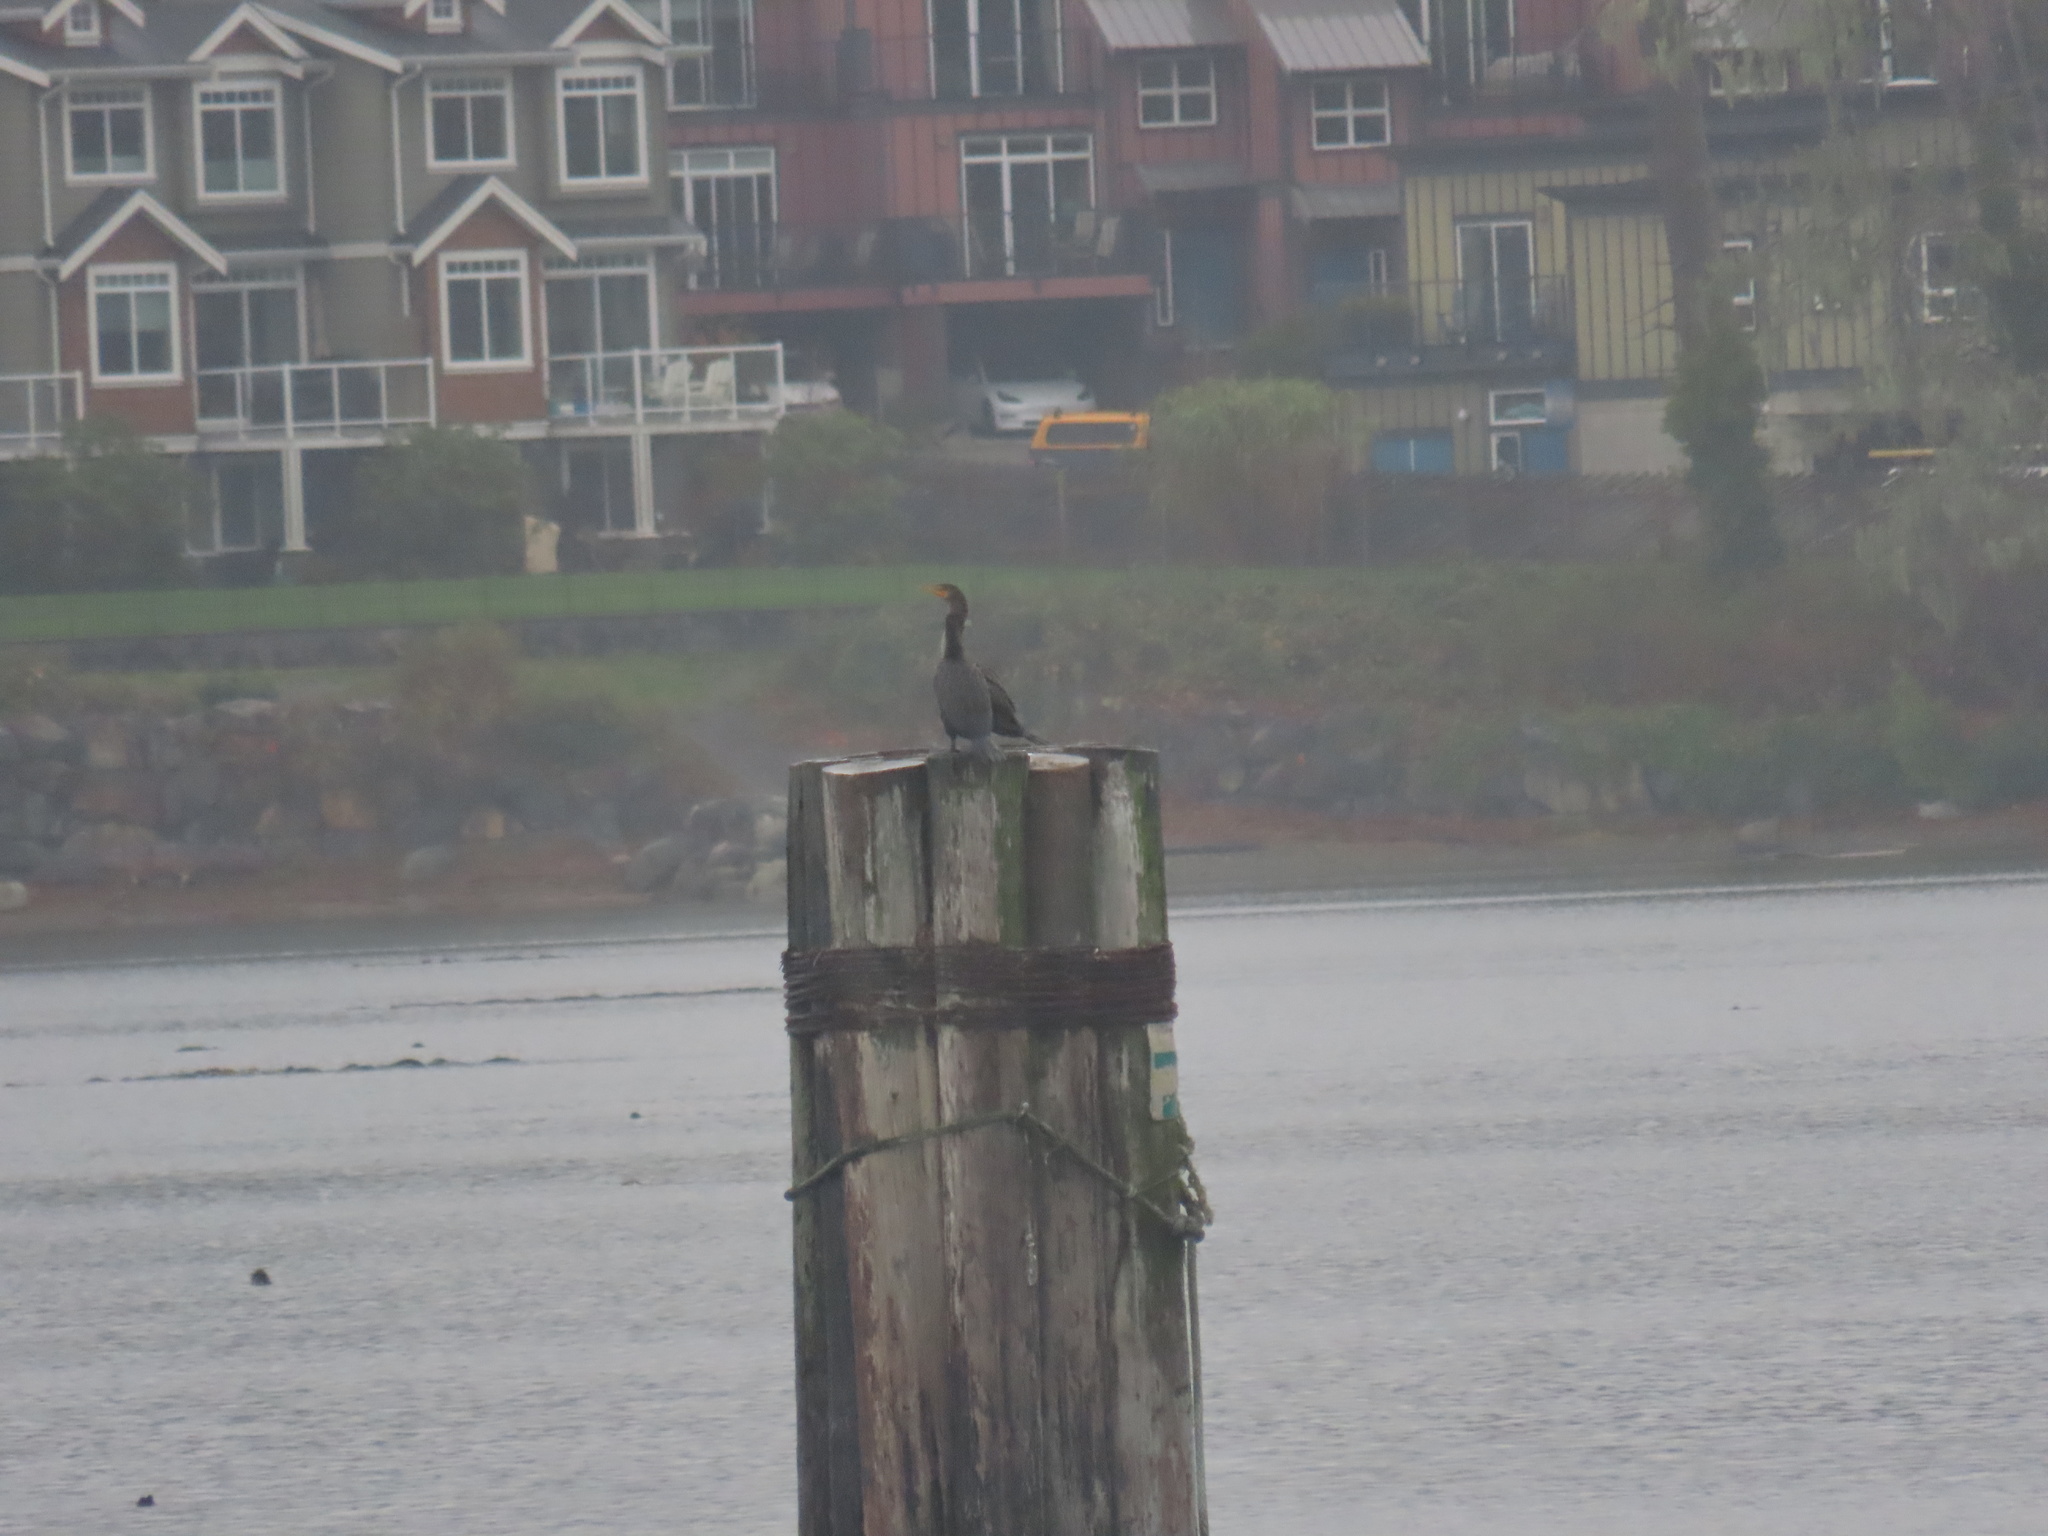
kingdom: Animalia
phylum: Chordata
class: Aves
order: Suliformes
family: Phalacrocoracidae
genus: Phalacrocorax
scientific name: Phalacrocorax auritus
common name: Double-crested cormorant
